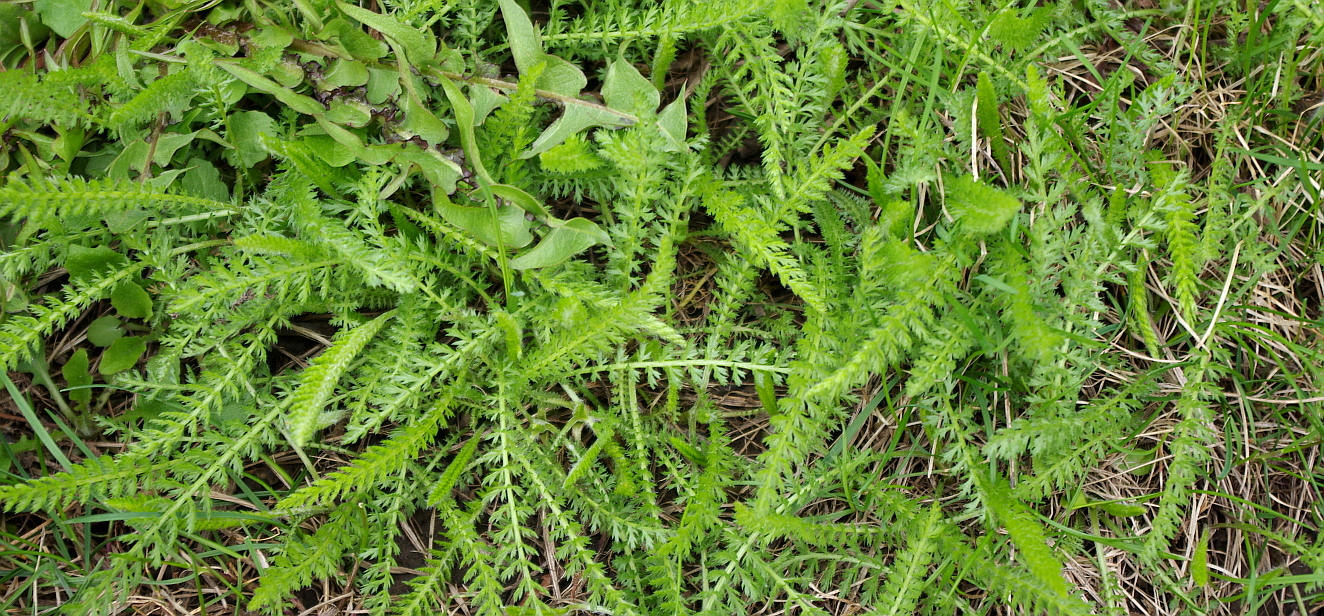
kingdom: Plantae
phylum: Tracheophyta
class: Magnoliopsida
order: Asterales
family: Asteraceae
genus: Achillea
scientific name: Achillea millefolium
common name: Yarrow
